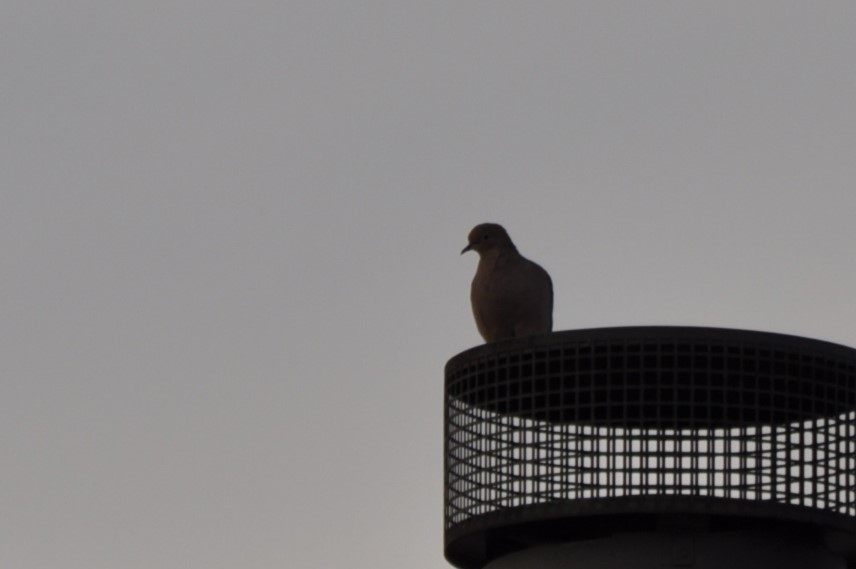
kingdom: Animalia
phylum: Chordata
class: Aves
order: Columbiformes
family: Columbidae
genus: Zenaida
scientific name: Zenaida macroura
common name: Mourning dove
